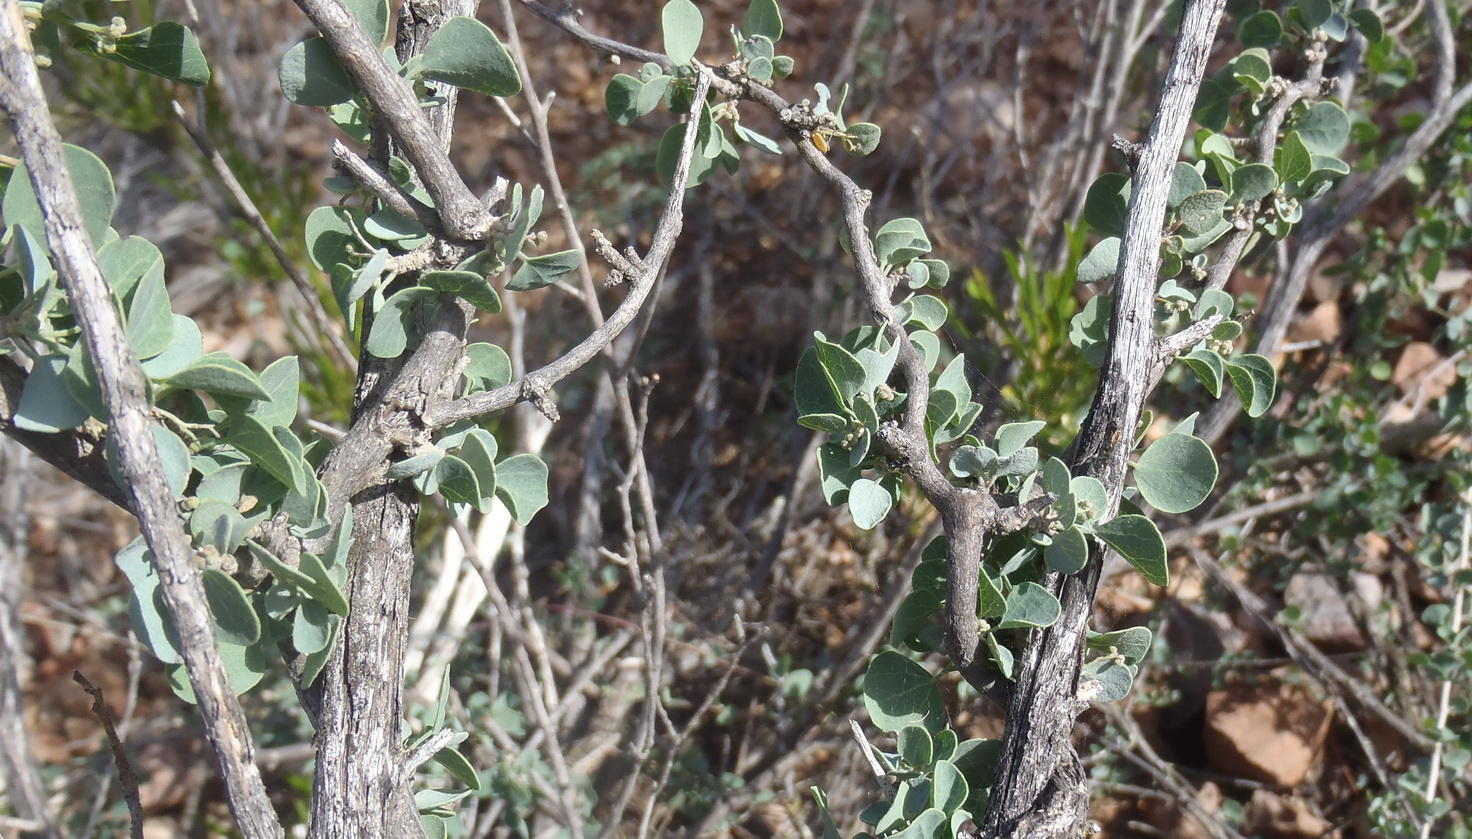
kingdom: Plantae
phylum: Tracheophyta
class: Magnoliopsida
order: Ranunculales
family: Menispermaceae
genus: Cissampelos
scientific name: Cissampelos capensis
